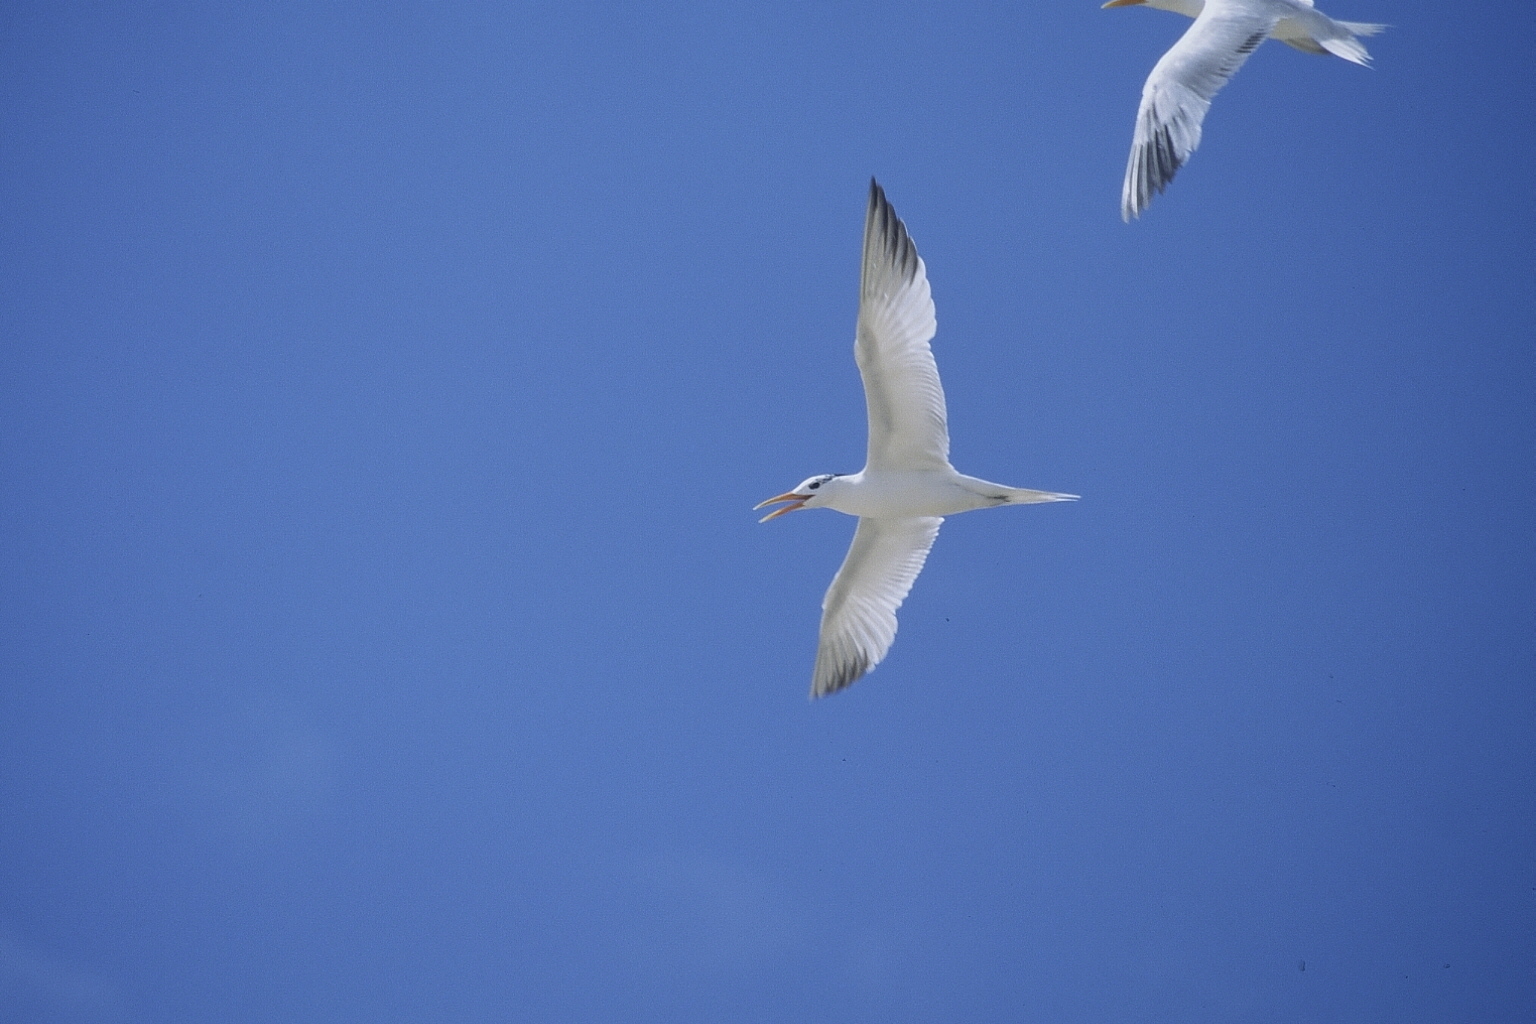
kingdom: Animalia
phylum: Chordata
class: Aves
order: Charadriiformes
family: Laridae
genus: Thalasseus
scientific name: Thalasseus albididorsalis
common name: West african crested tern
